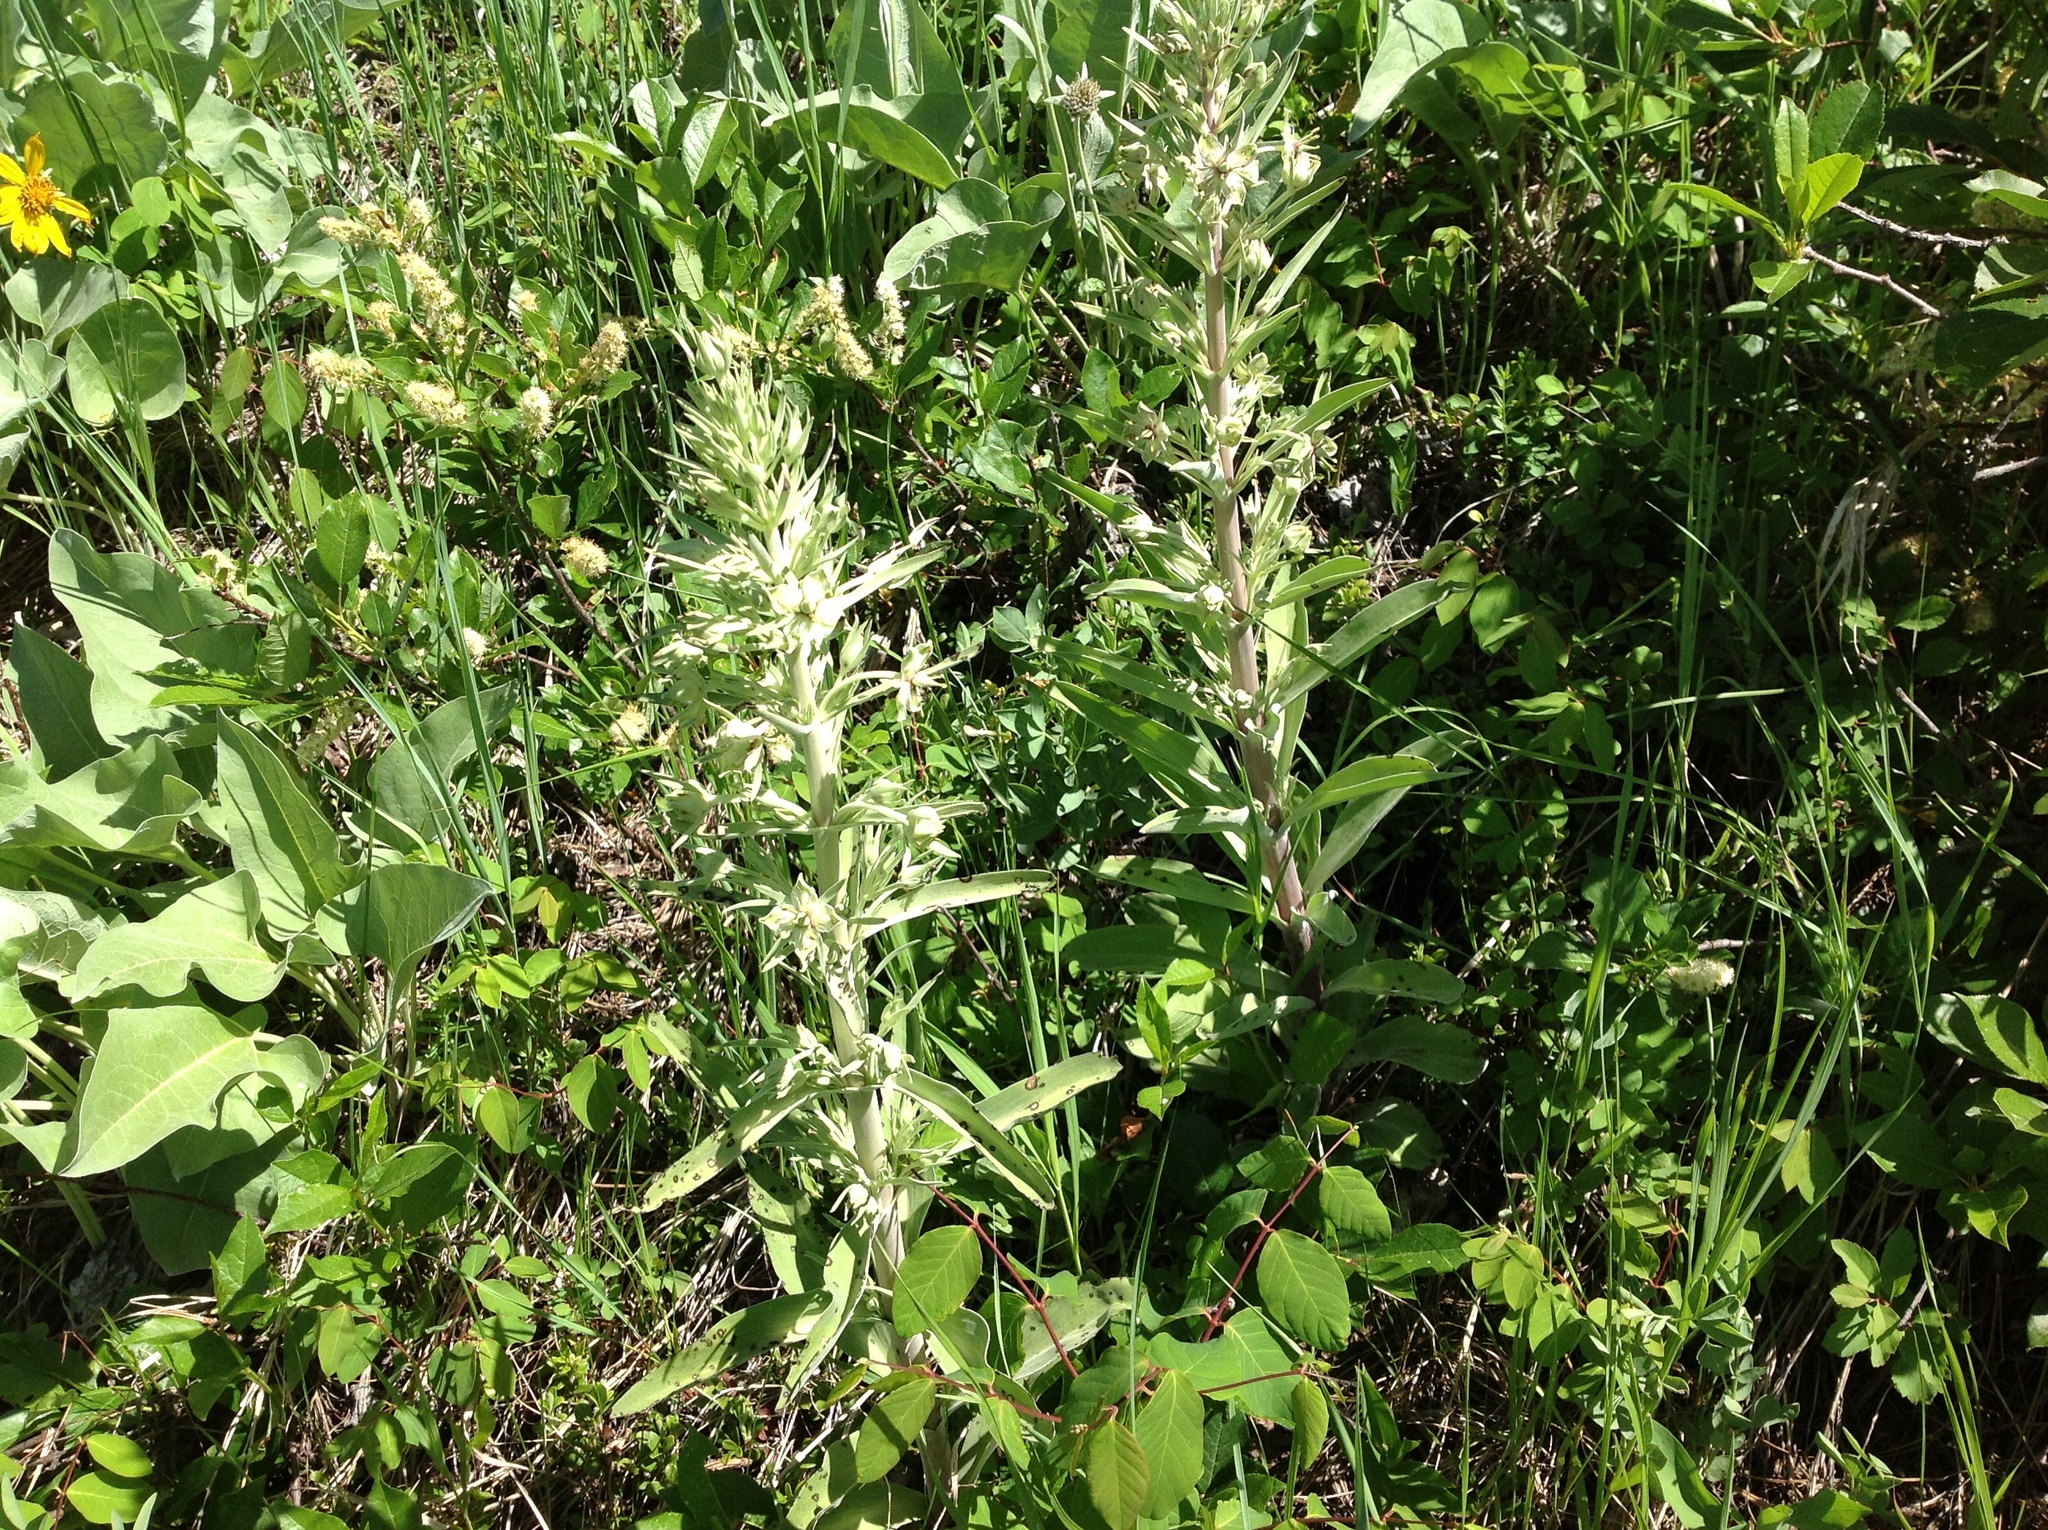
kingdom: Plantae
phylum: Tracheophyta
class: Magnoliopsida
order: Gentianales
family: Gentianaceae
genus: Frasera
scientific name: Frasera speciosa
